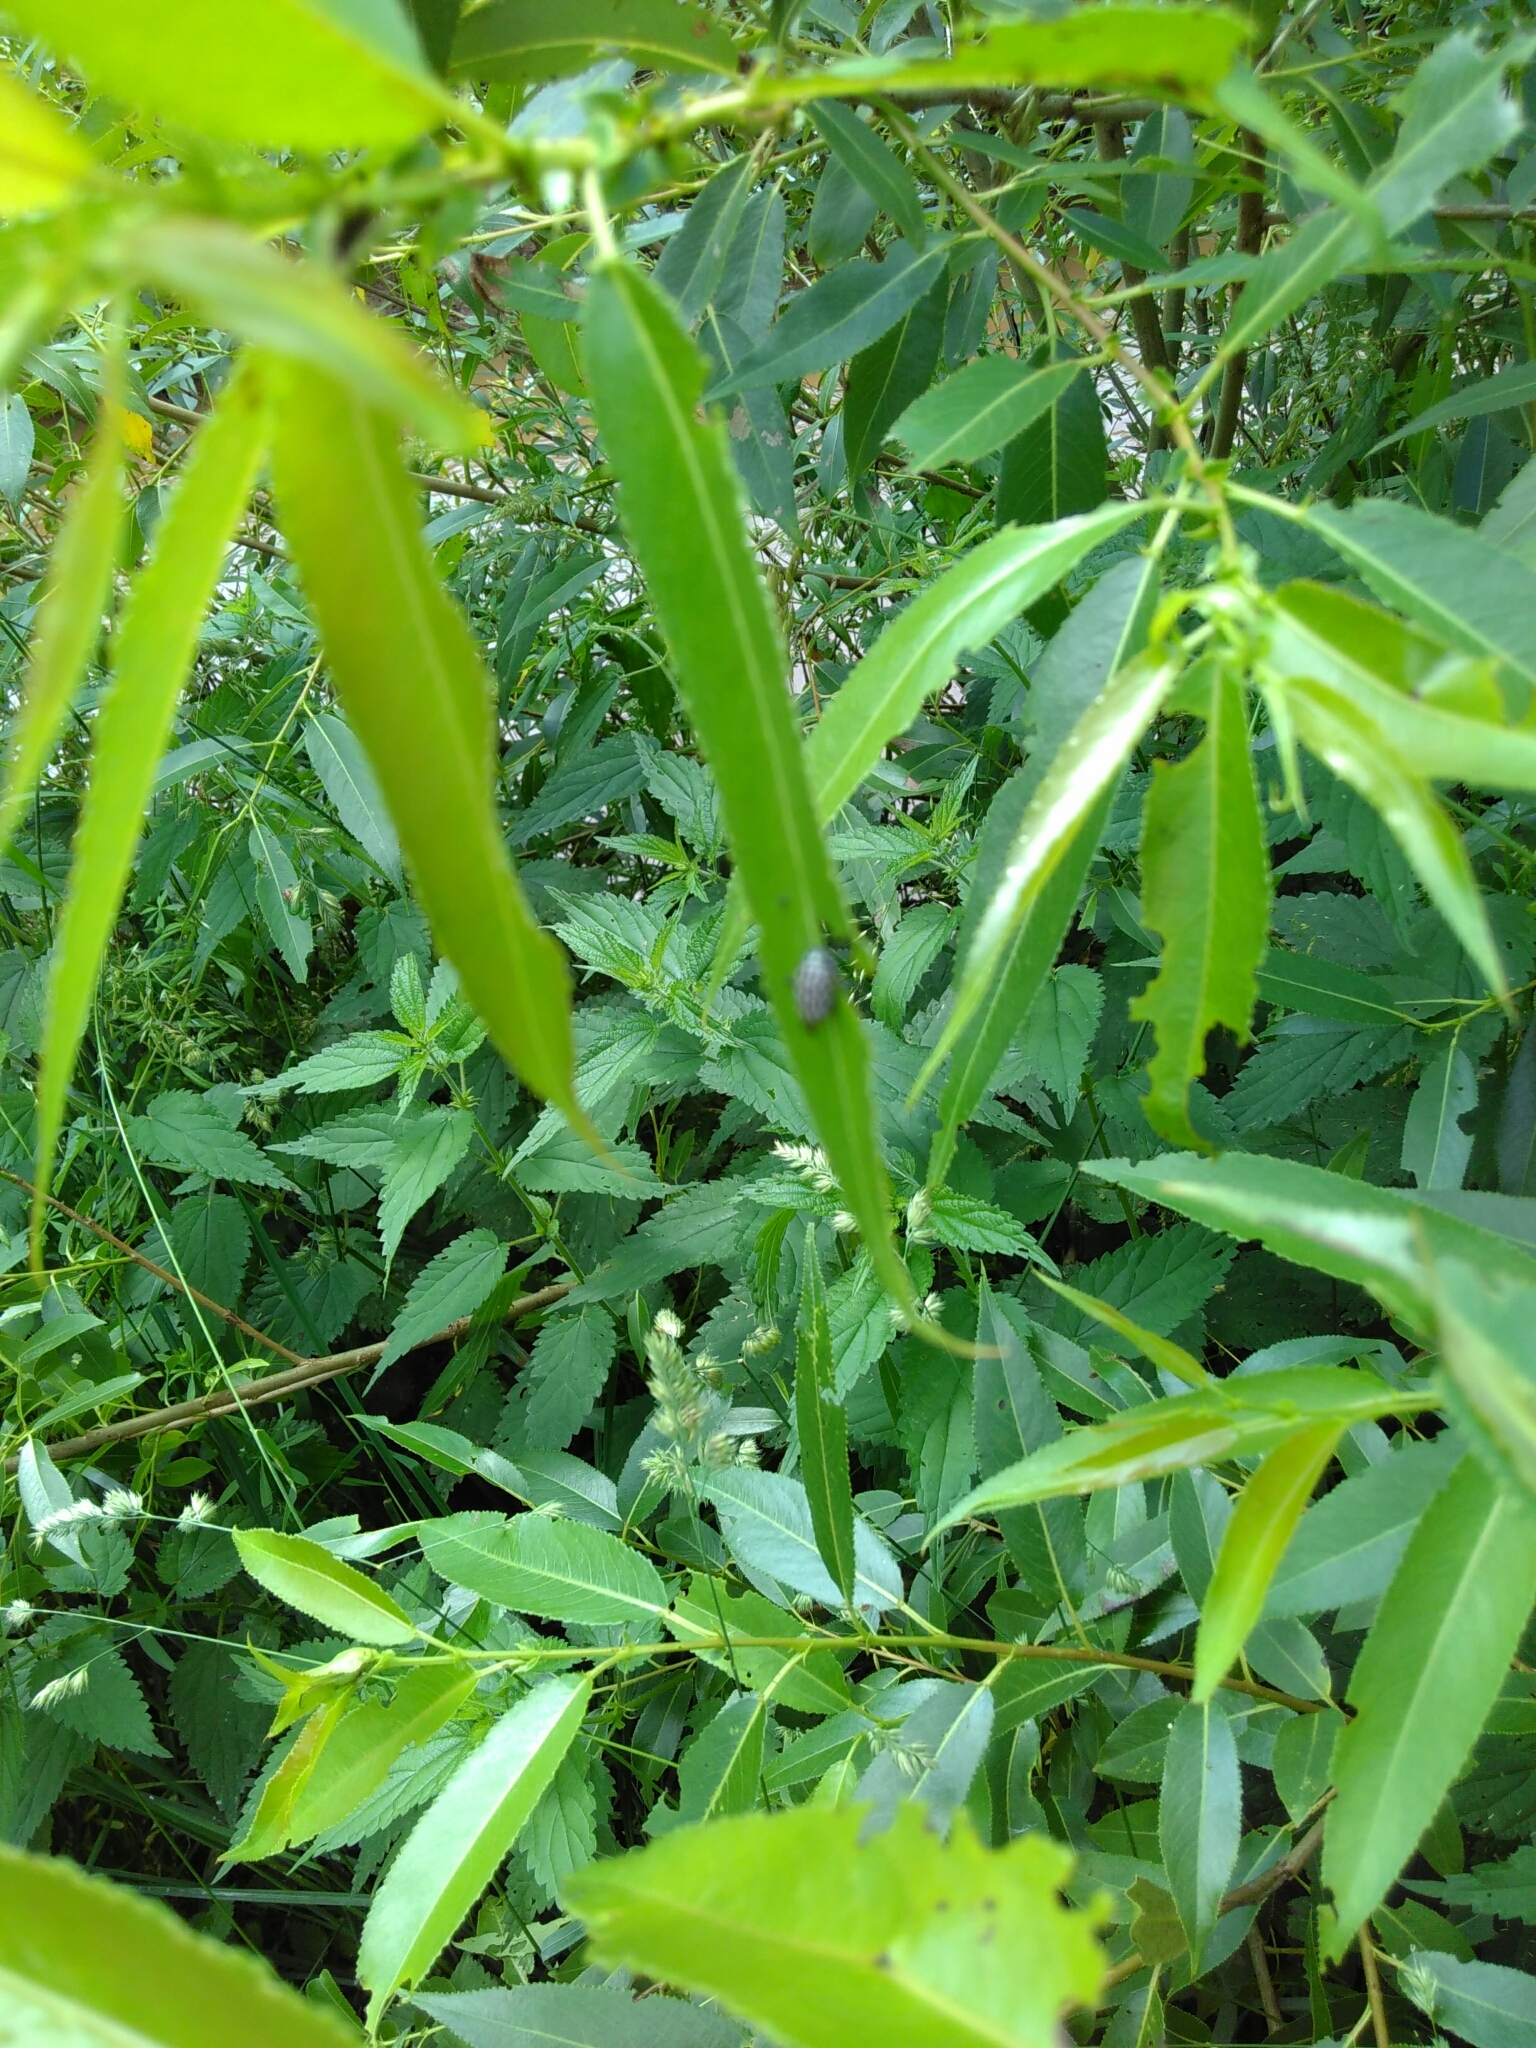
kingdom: Animalia
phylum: Arthropoda
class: Insecta
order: Coleoptera
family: Chrysomelidae
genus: Chrysomela
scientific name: Chrysomela vigintipunctata
